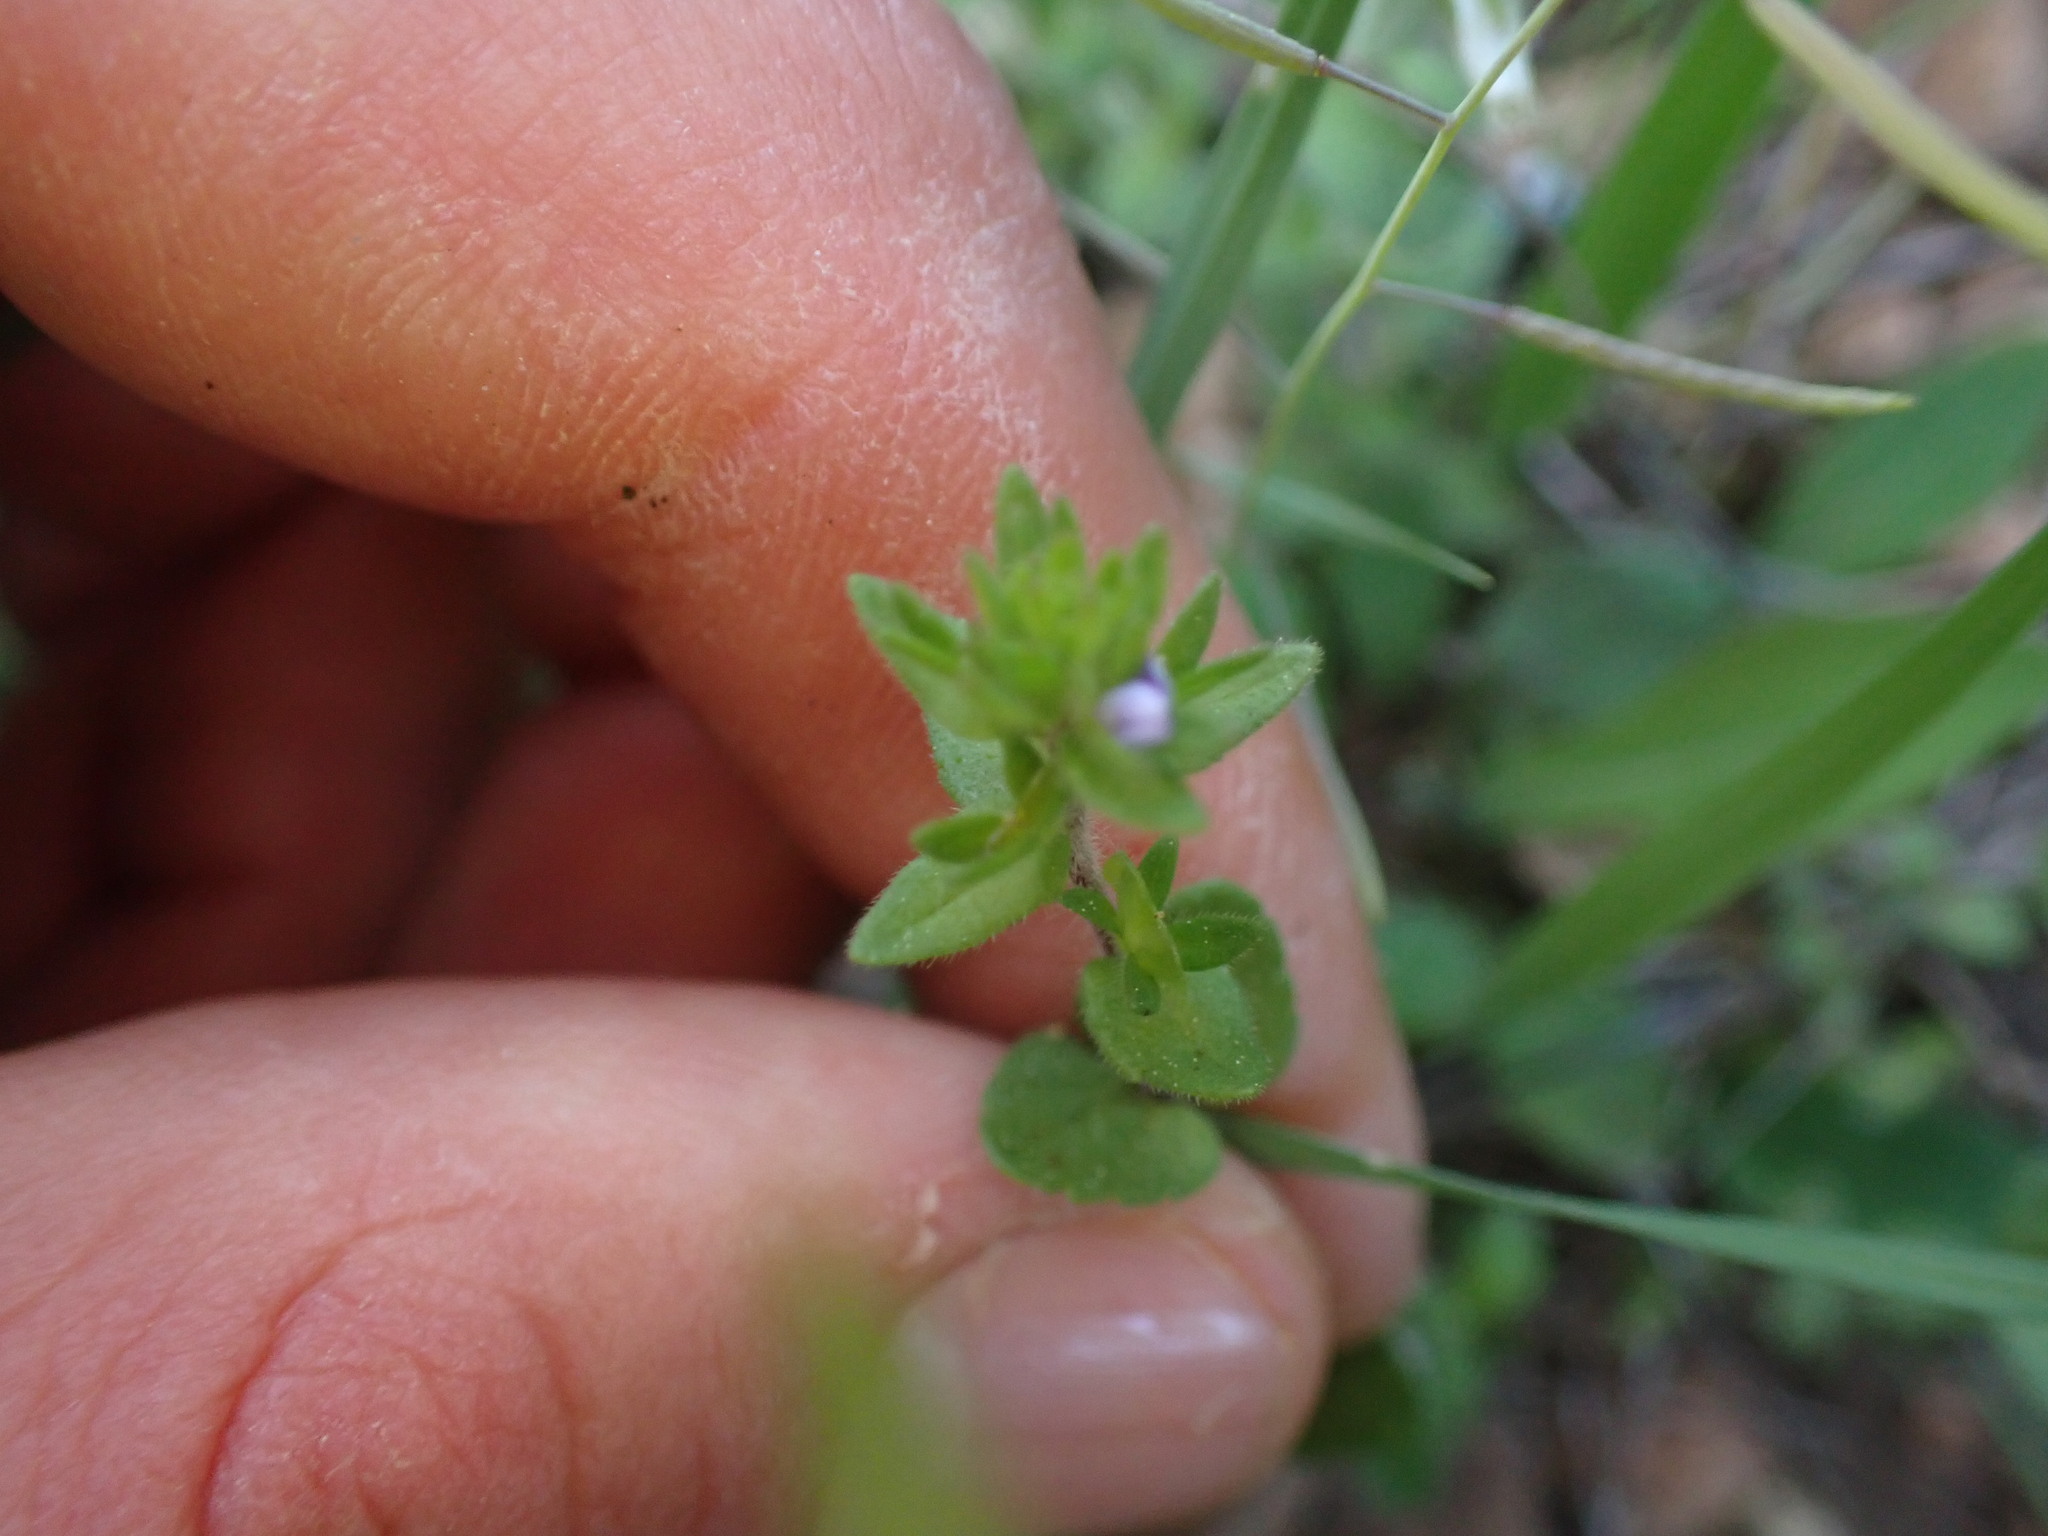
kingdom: Plantae
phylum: Tracheophyta
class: Magnoliopsida
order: Lamiales
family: Plantaginaceae
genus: Veronica
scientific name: Veronica arvensis
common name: Corn speedwell
